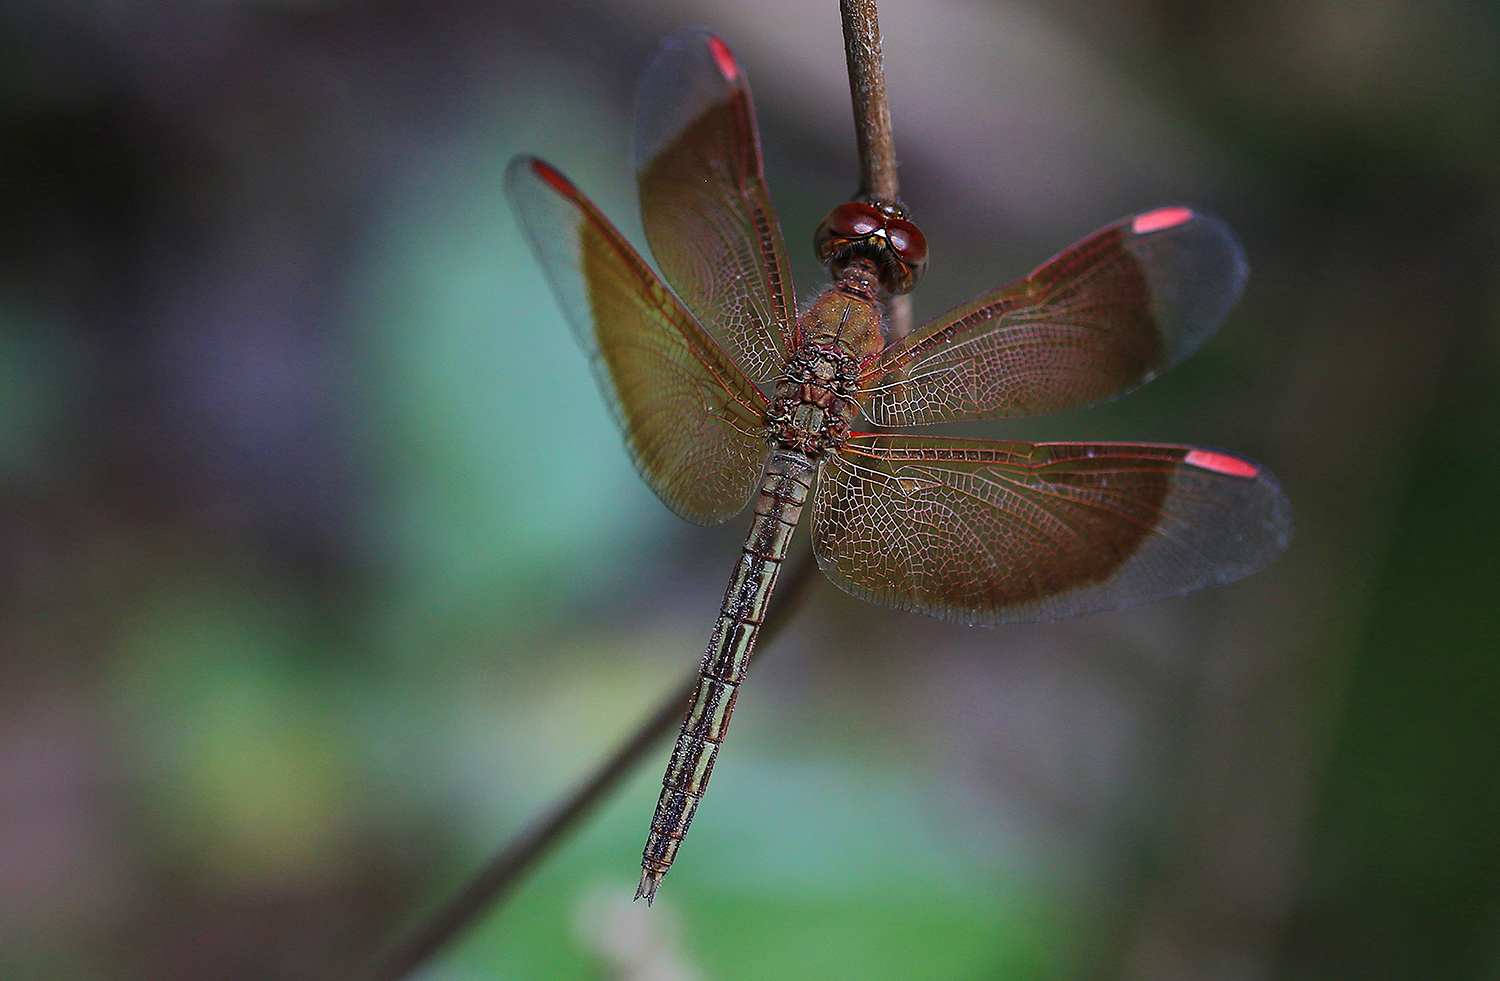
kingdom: Animalia
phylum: Arthropoda
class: Insecta
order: Odonata
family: Libellulidae
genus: Neurothemis
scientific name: Neurothemis stigmatizans
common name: Painted grasshawk
